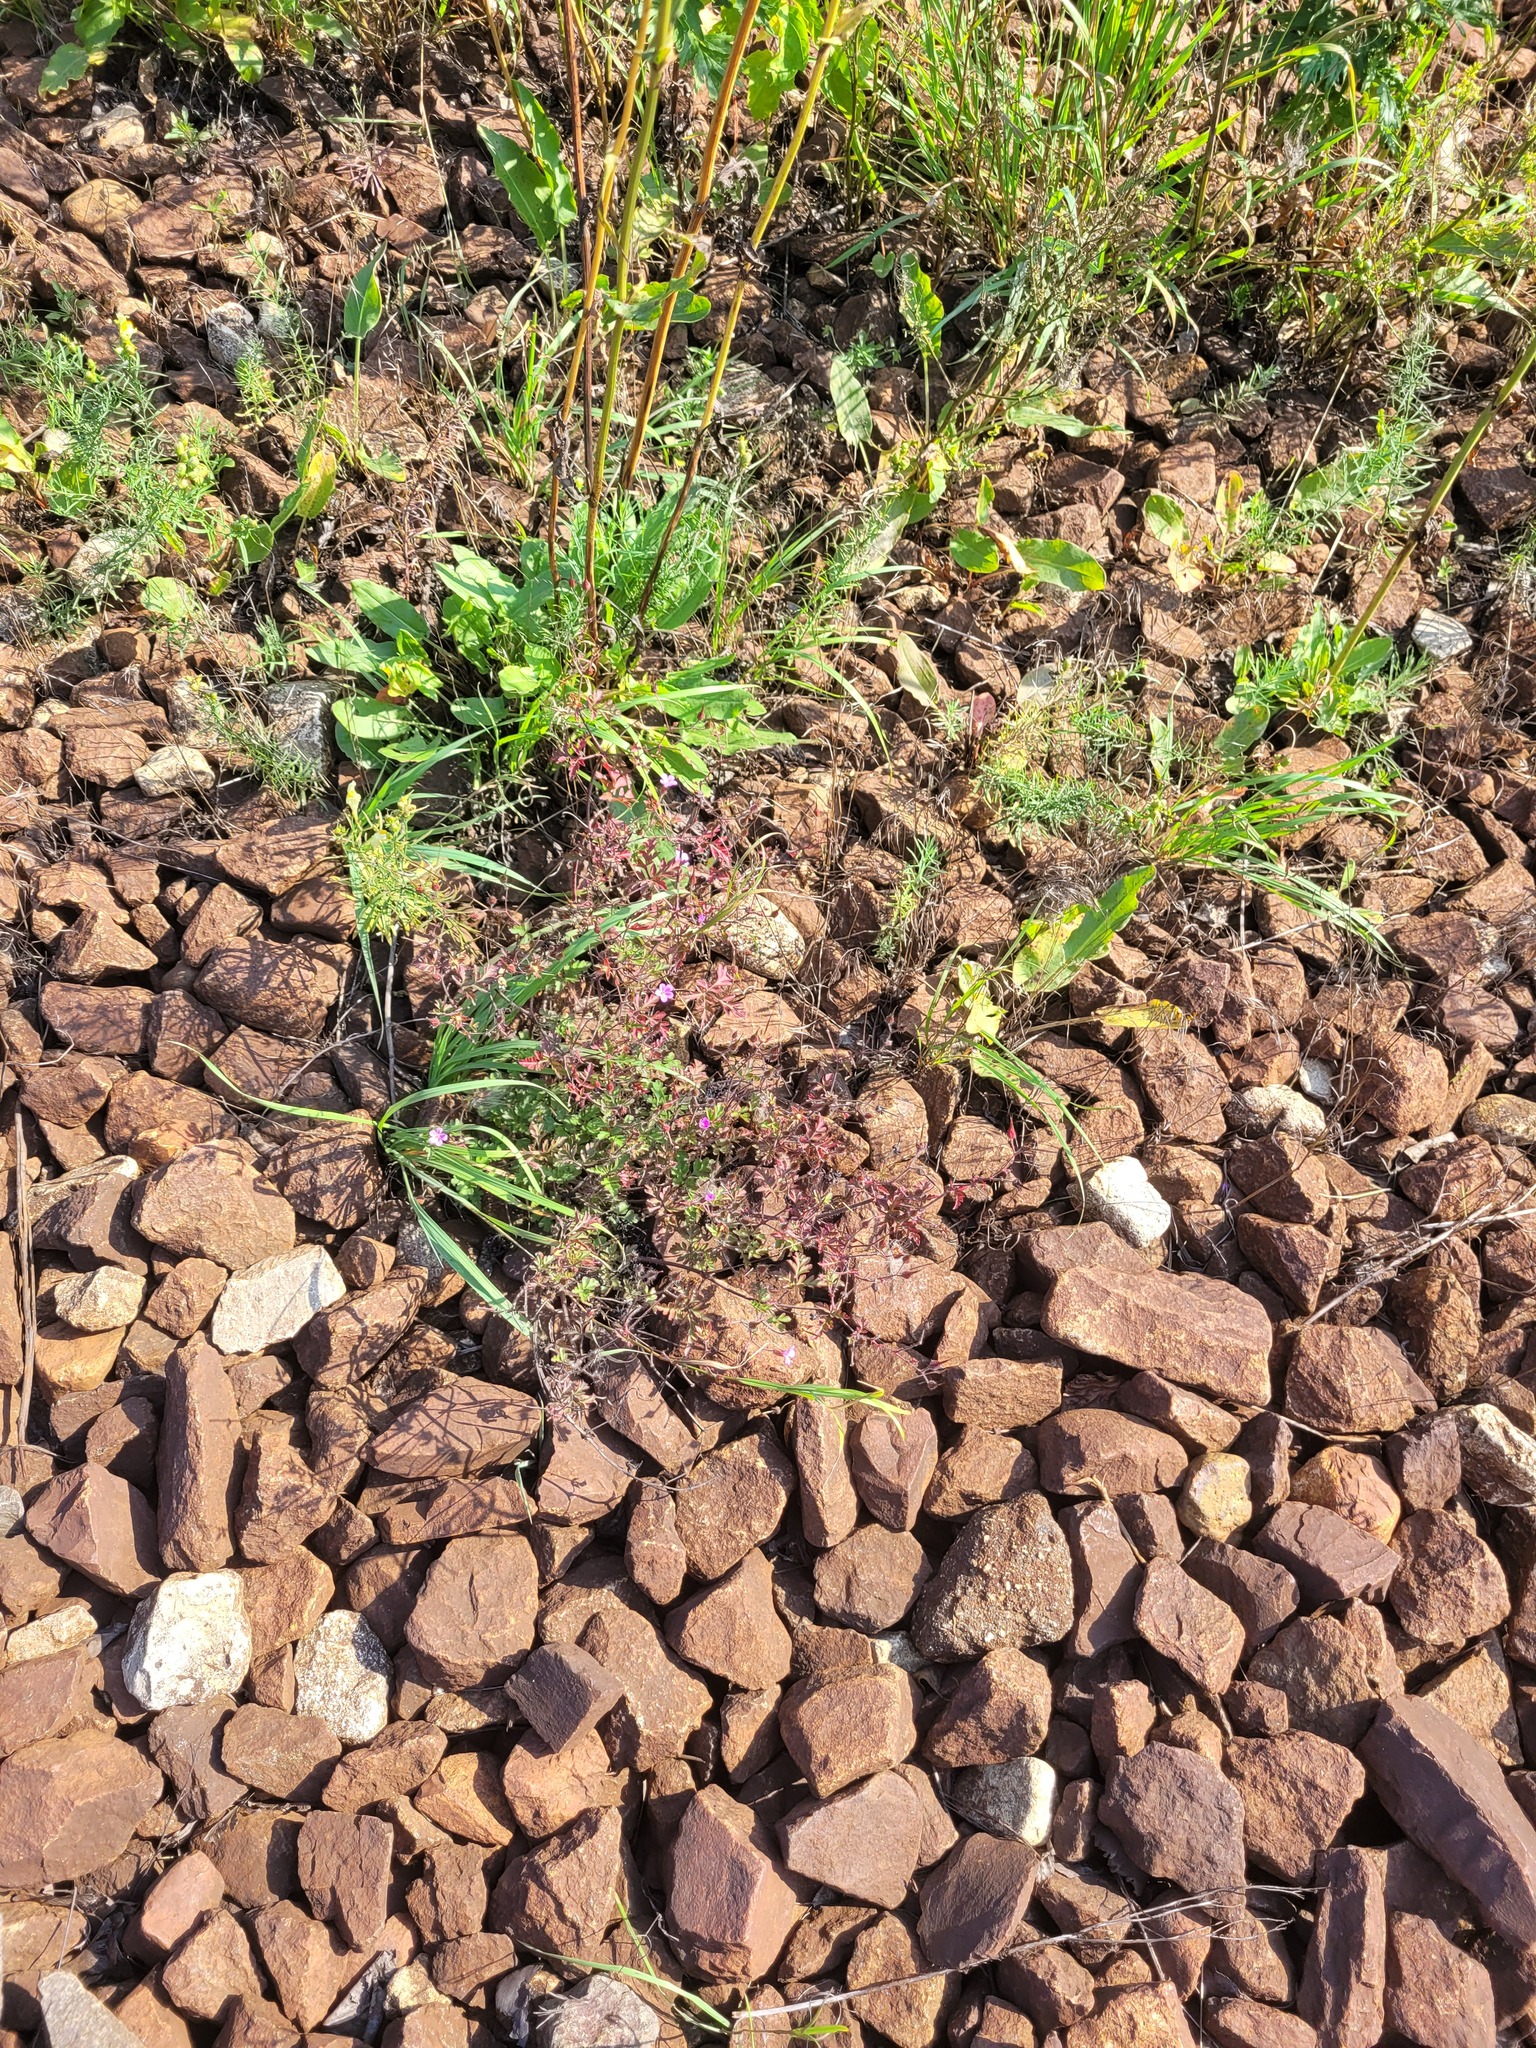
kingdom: Plantae
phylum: Tracheophyta
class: Magnoliopsida
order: Geraniales
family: Geraniaceae
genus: Geranium
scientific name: Geranium robertianum
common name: Herb-robert
